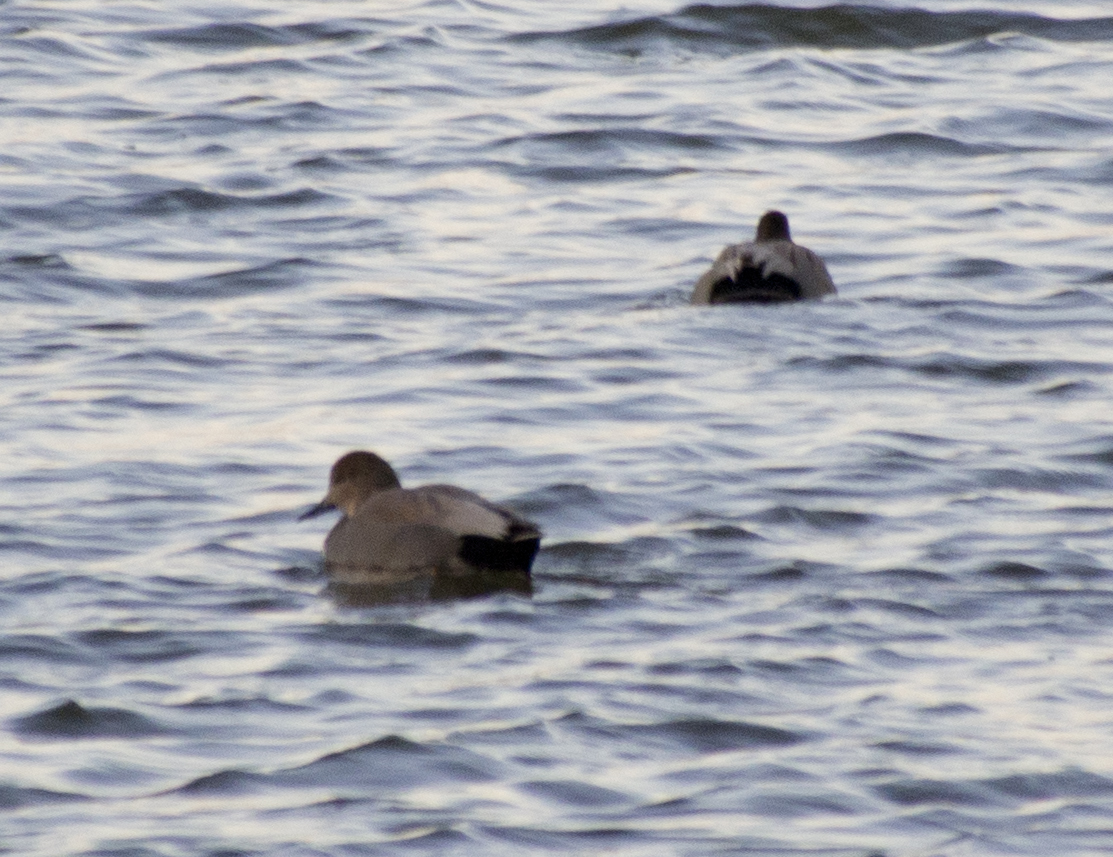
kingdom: Animalia
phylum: Chordata
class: Aves
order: Anseriformes
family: Anatidae
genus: Mareca
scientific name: Mareca strepera
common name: Gadwall
